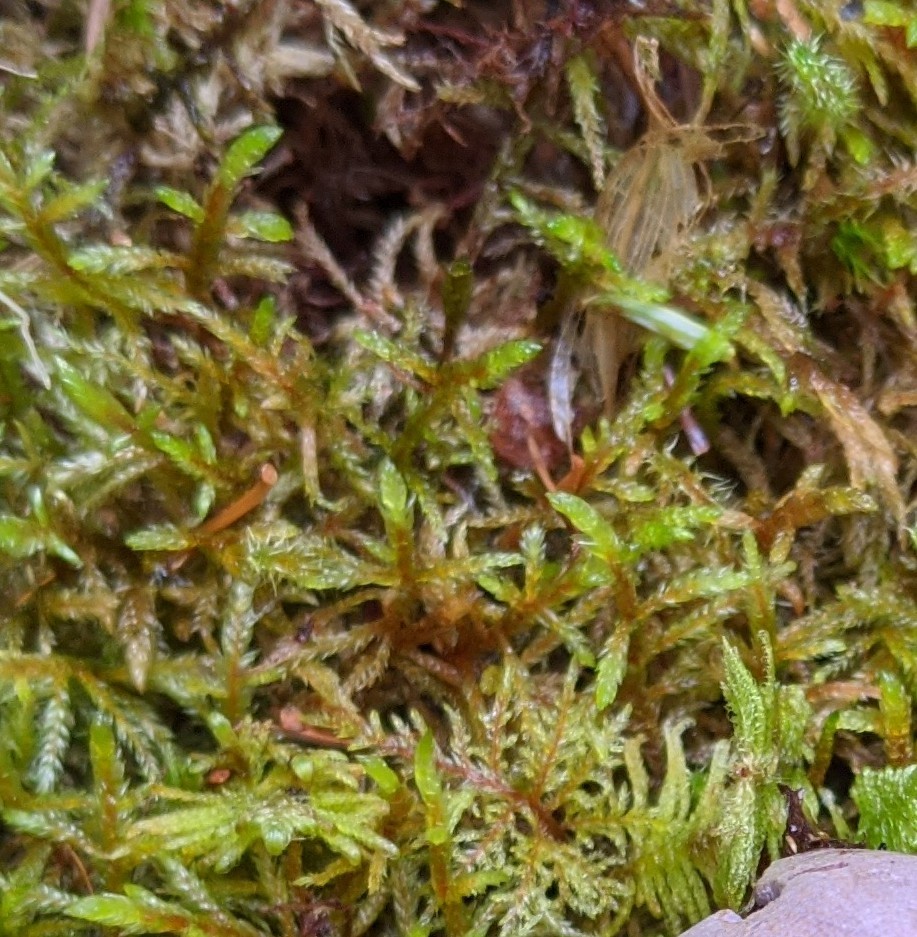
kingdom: Plantae
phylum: Bryophyta
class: Bryopsida
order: Hypnales
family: Hylocomiaceae
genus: Pleurozium
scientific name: Pleurozium schreberi
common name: Red-stemmed feather moss
